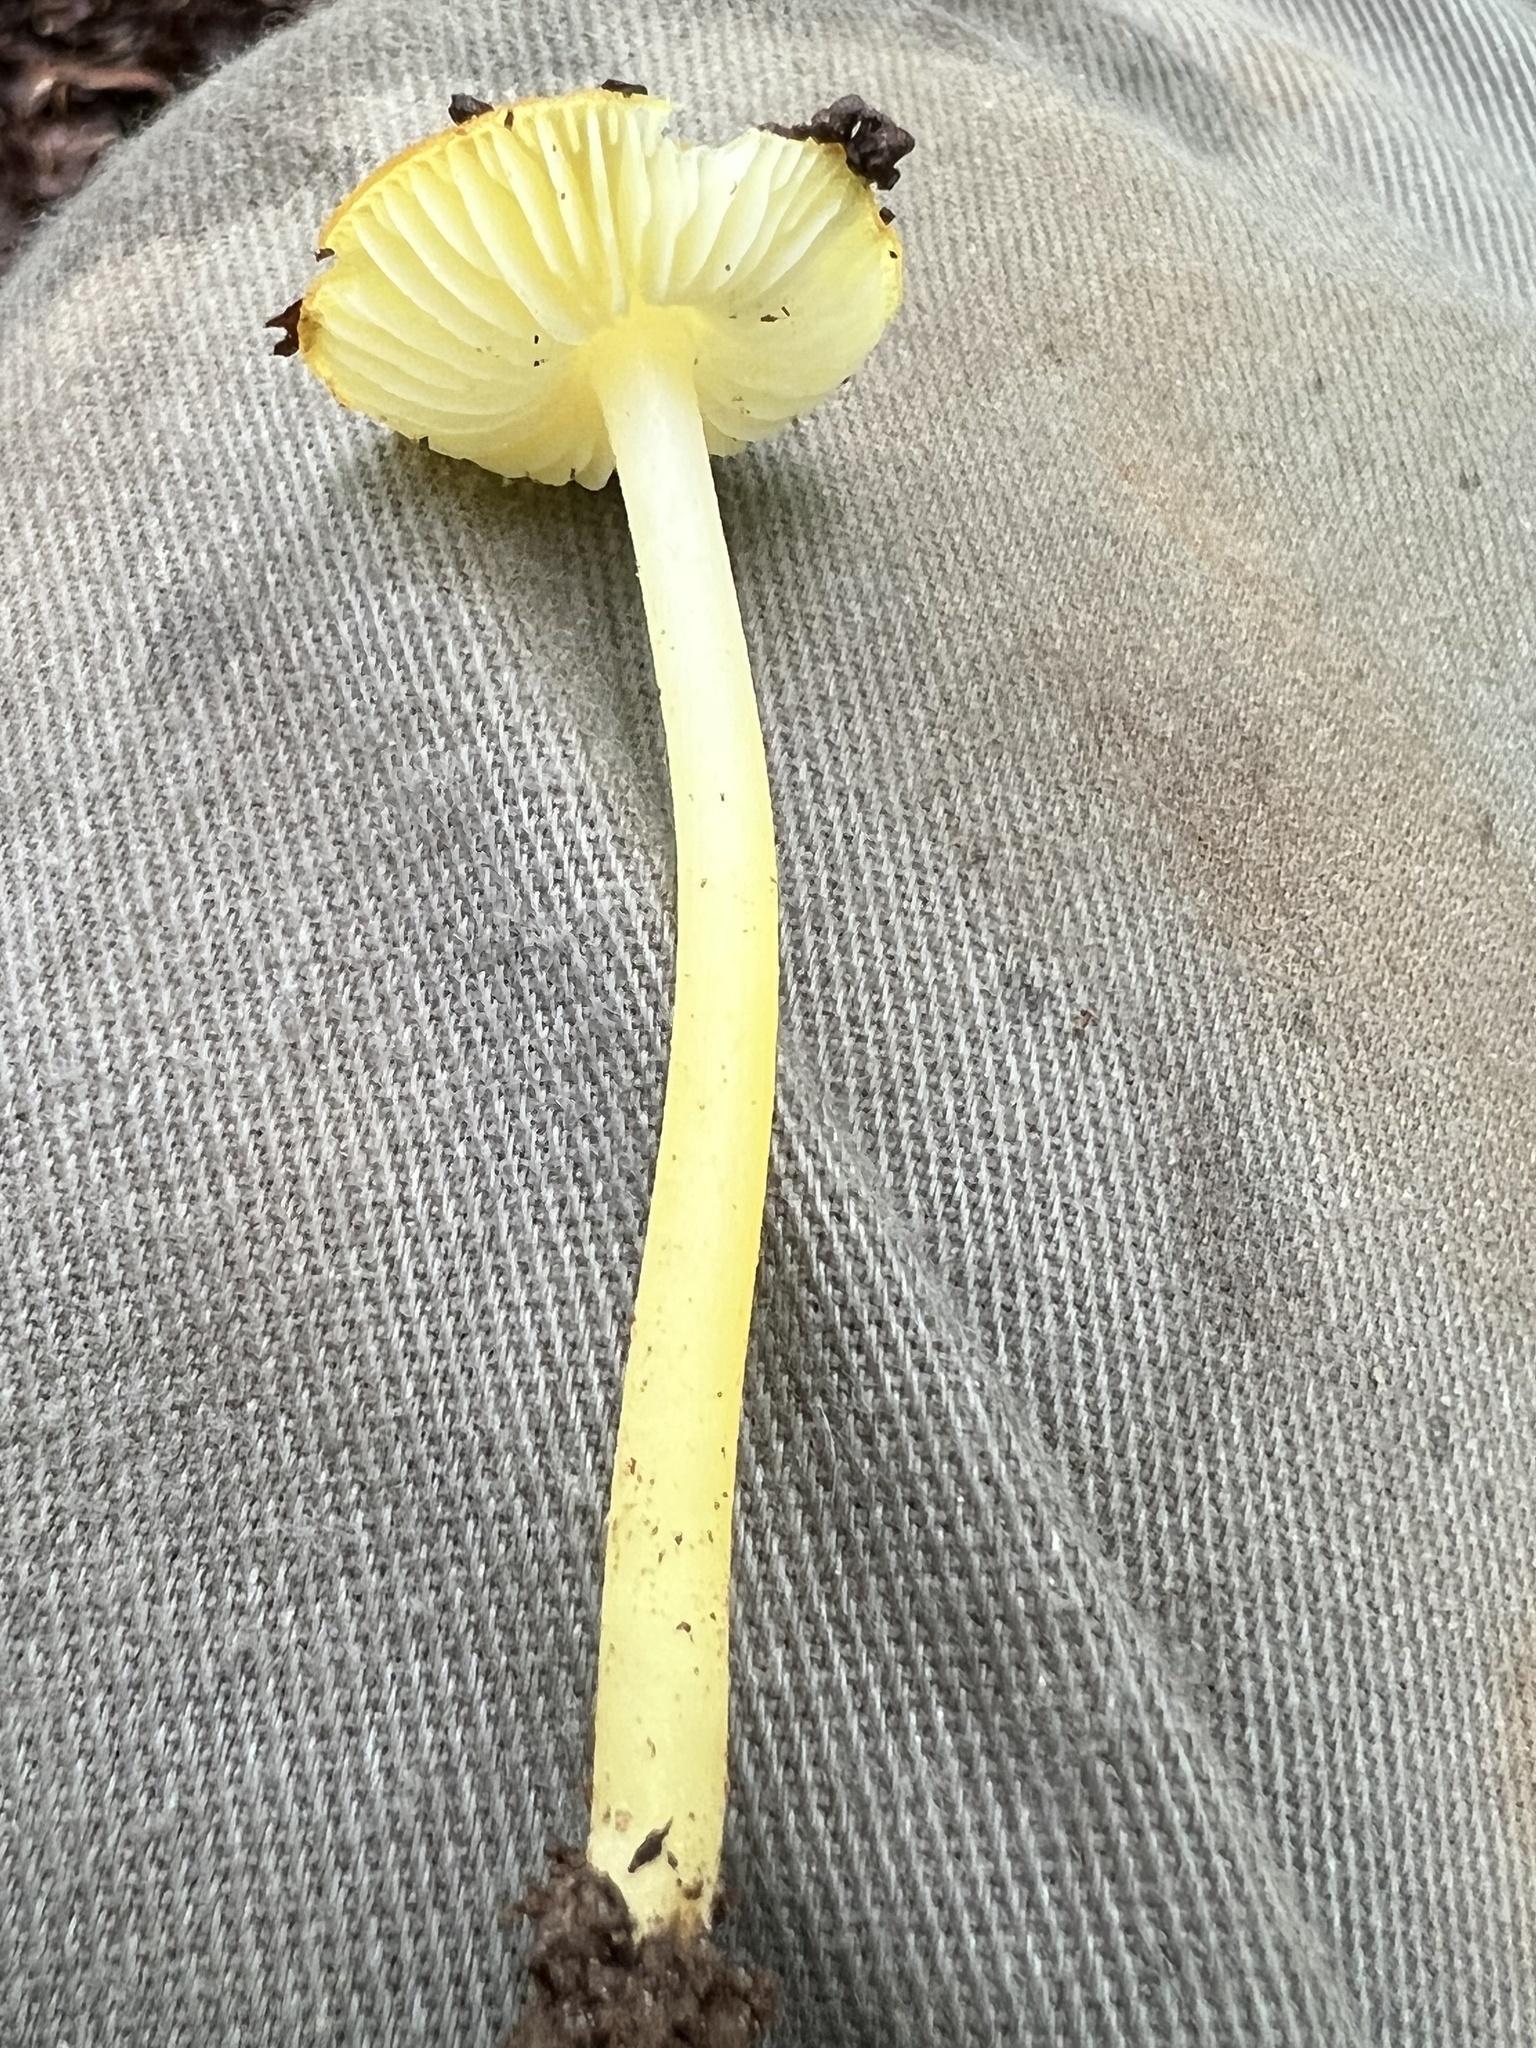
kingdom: Fungi
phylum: Basidiomycota
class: Agaricomycetes
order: Agaricales
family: Pluteaceae
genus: Pluteus
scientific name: Pluteus chrysophlebius
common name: Yellow deer mushroom
